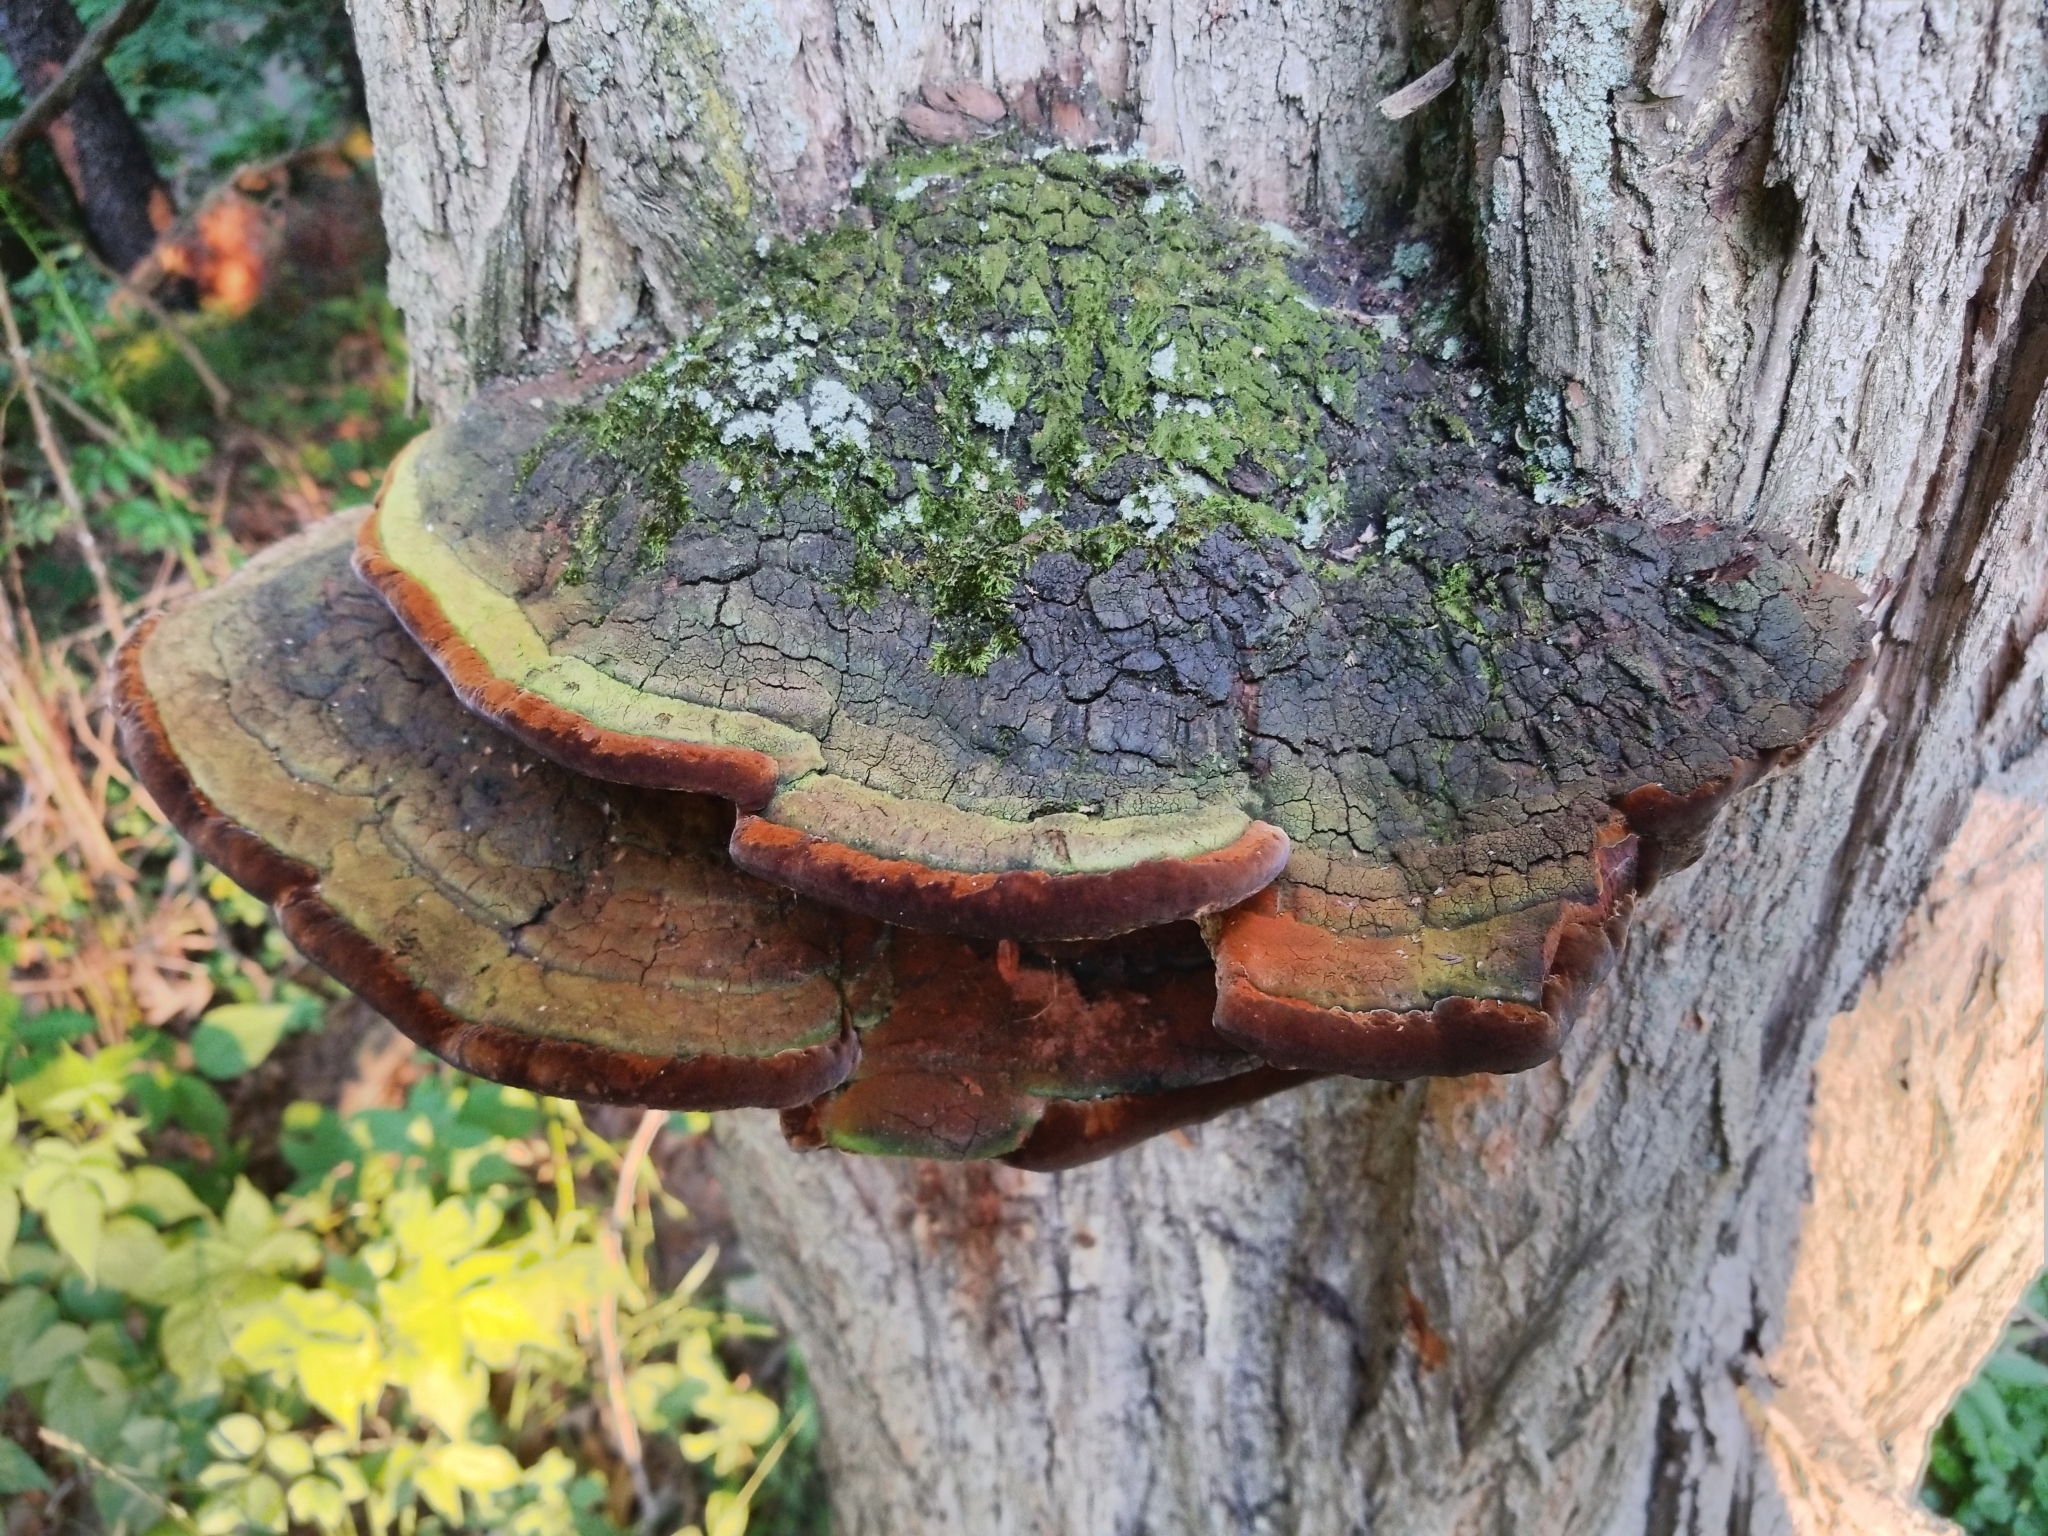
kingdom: Fungi
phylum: Basidiomycota
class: Agaricomycetes
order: Hymenochaetales
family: Hymenochaetaceae
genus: Phellinus
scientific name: Phellinus robiniae
